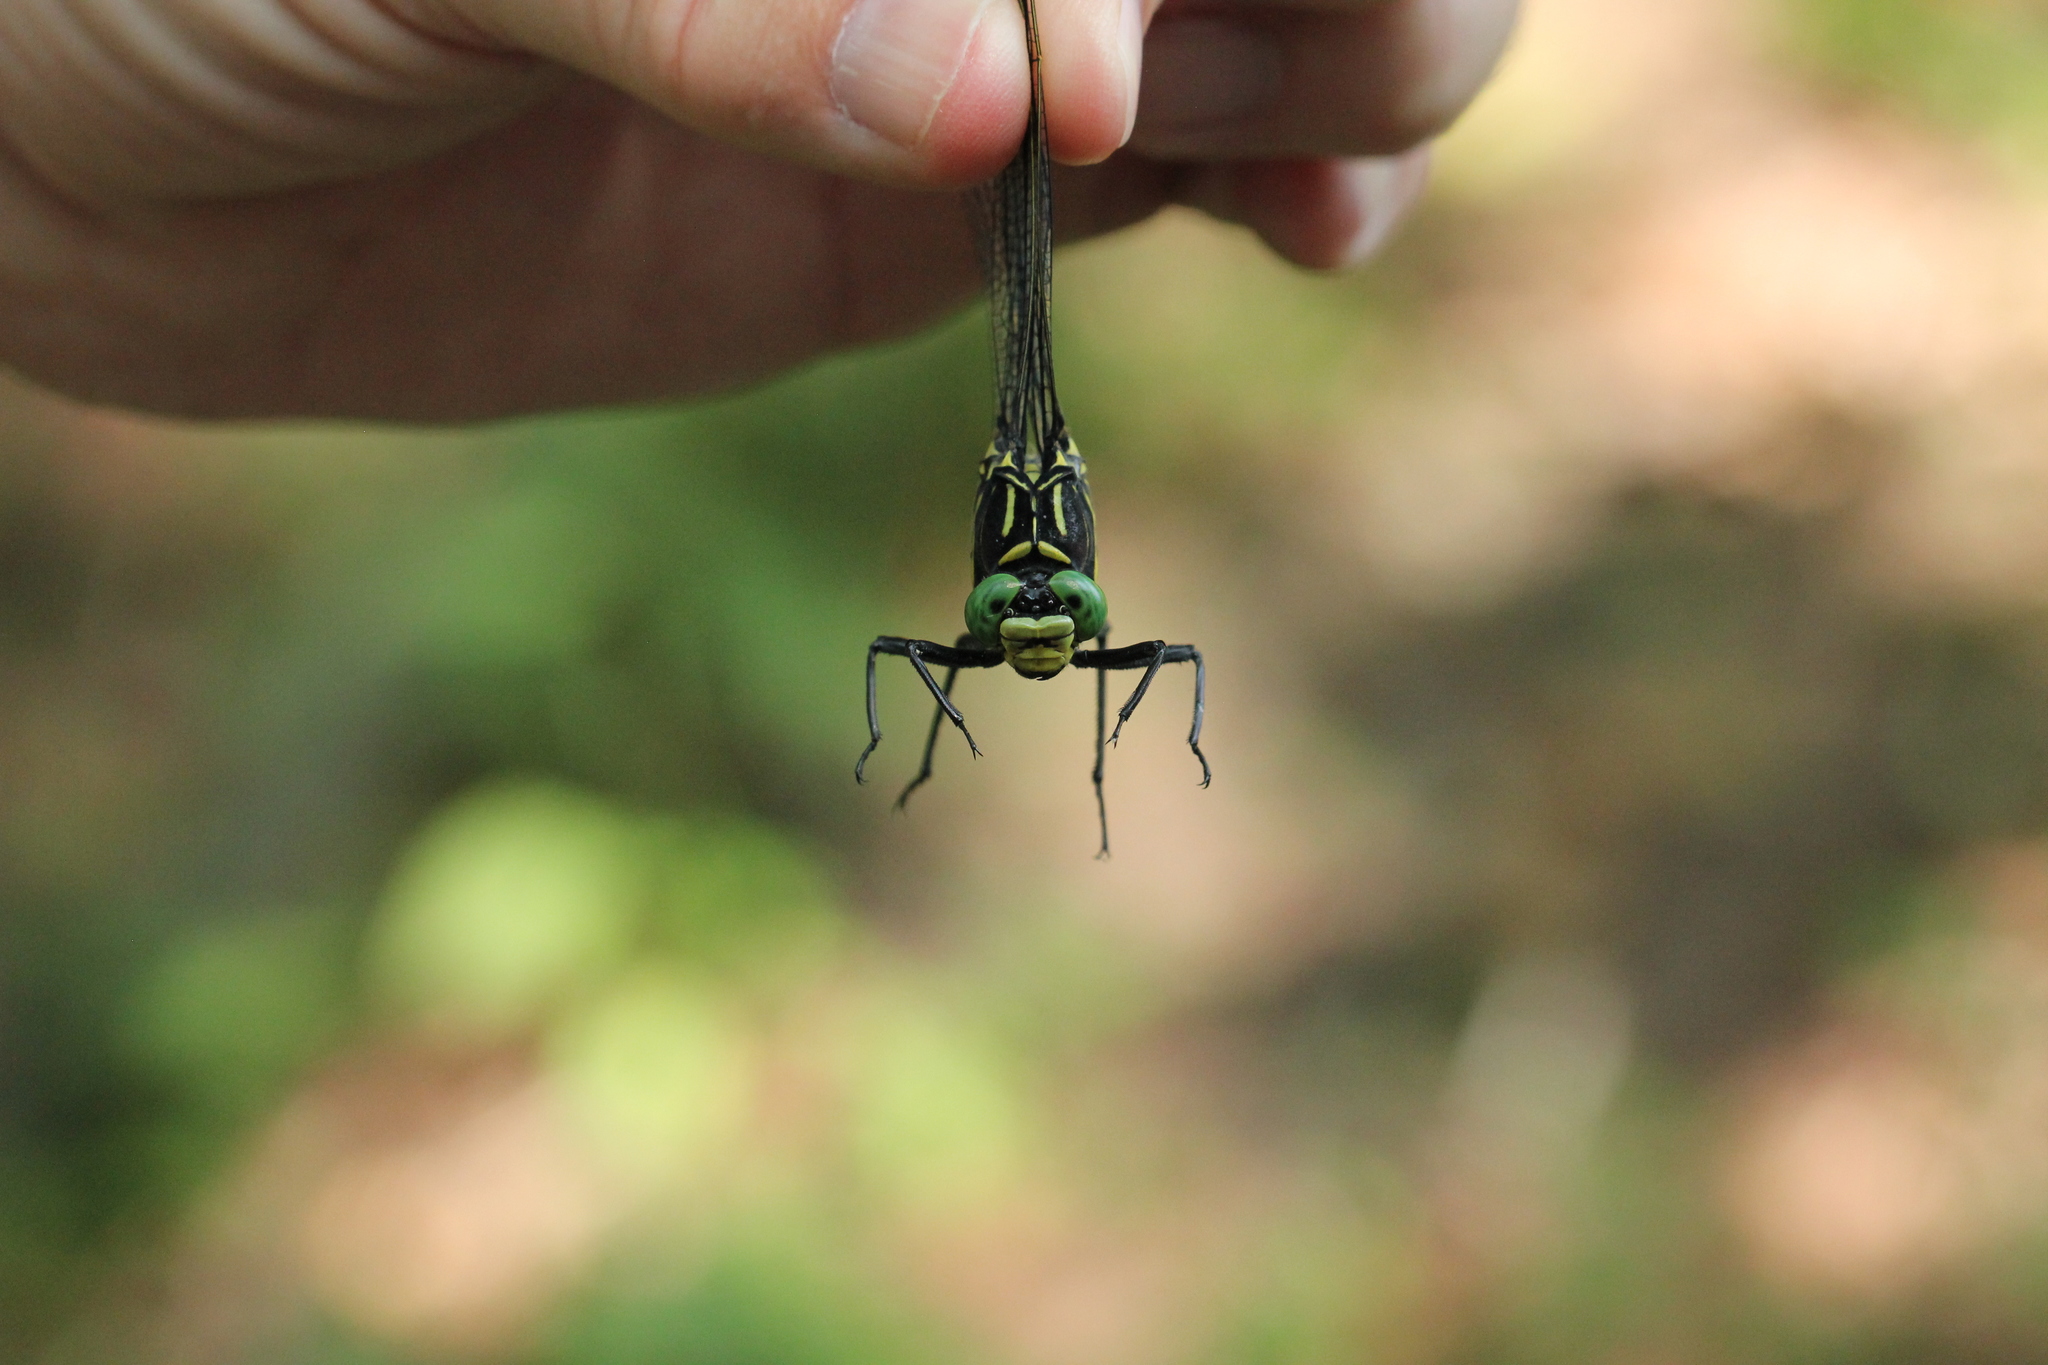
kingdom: Animalia
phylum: Arthropoda
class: Insecta
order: Odonata
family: Gomphidae
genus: Hagenius
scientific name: Hagenius brevistylus
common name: Dragonhunter
